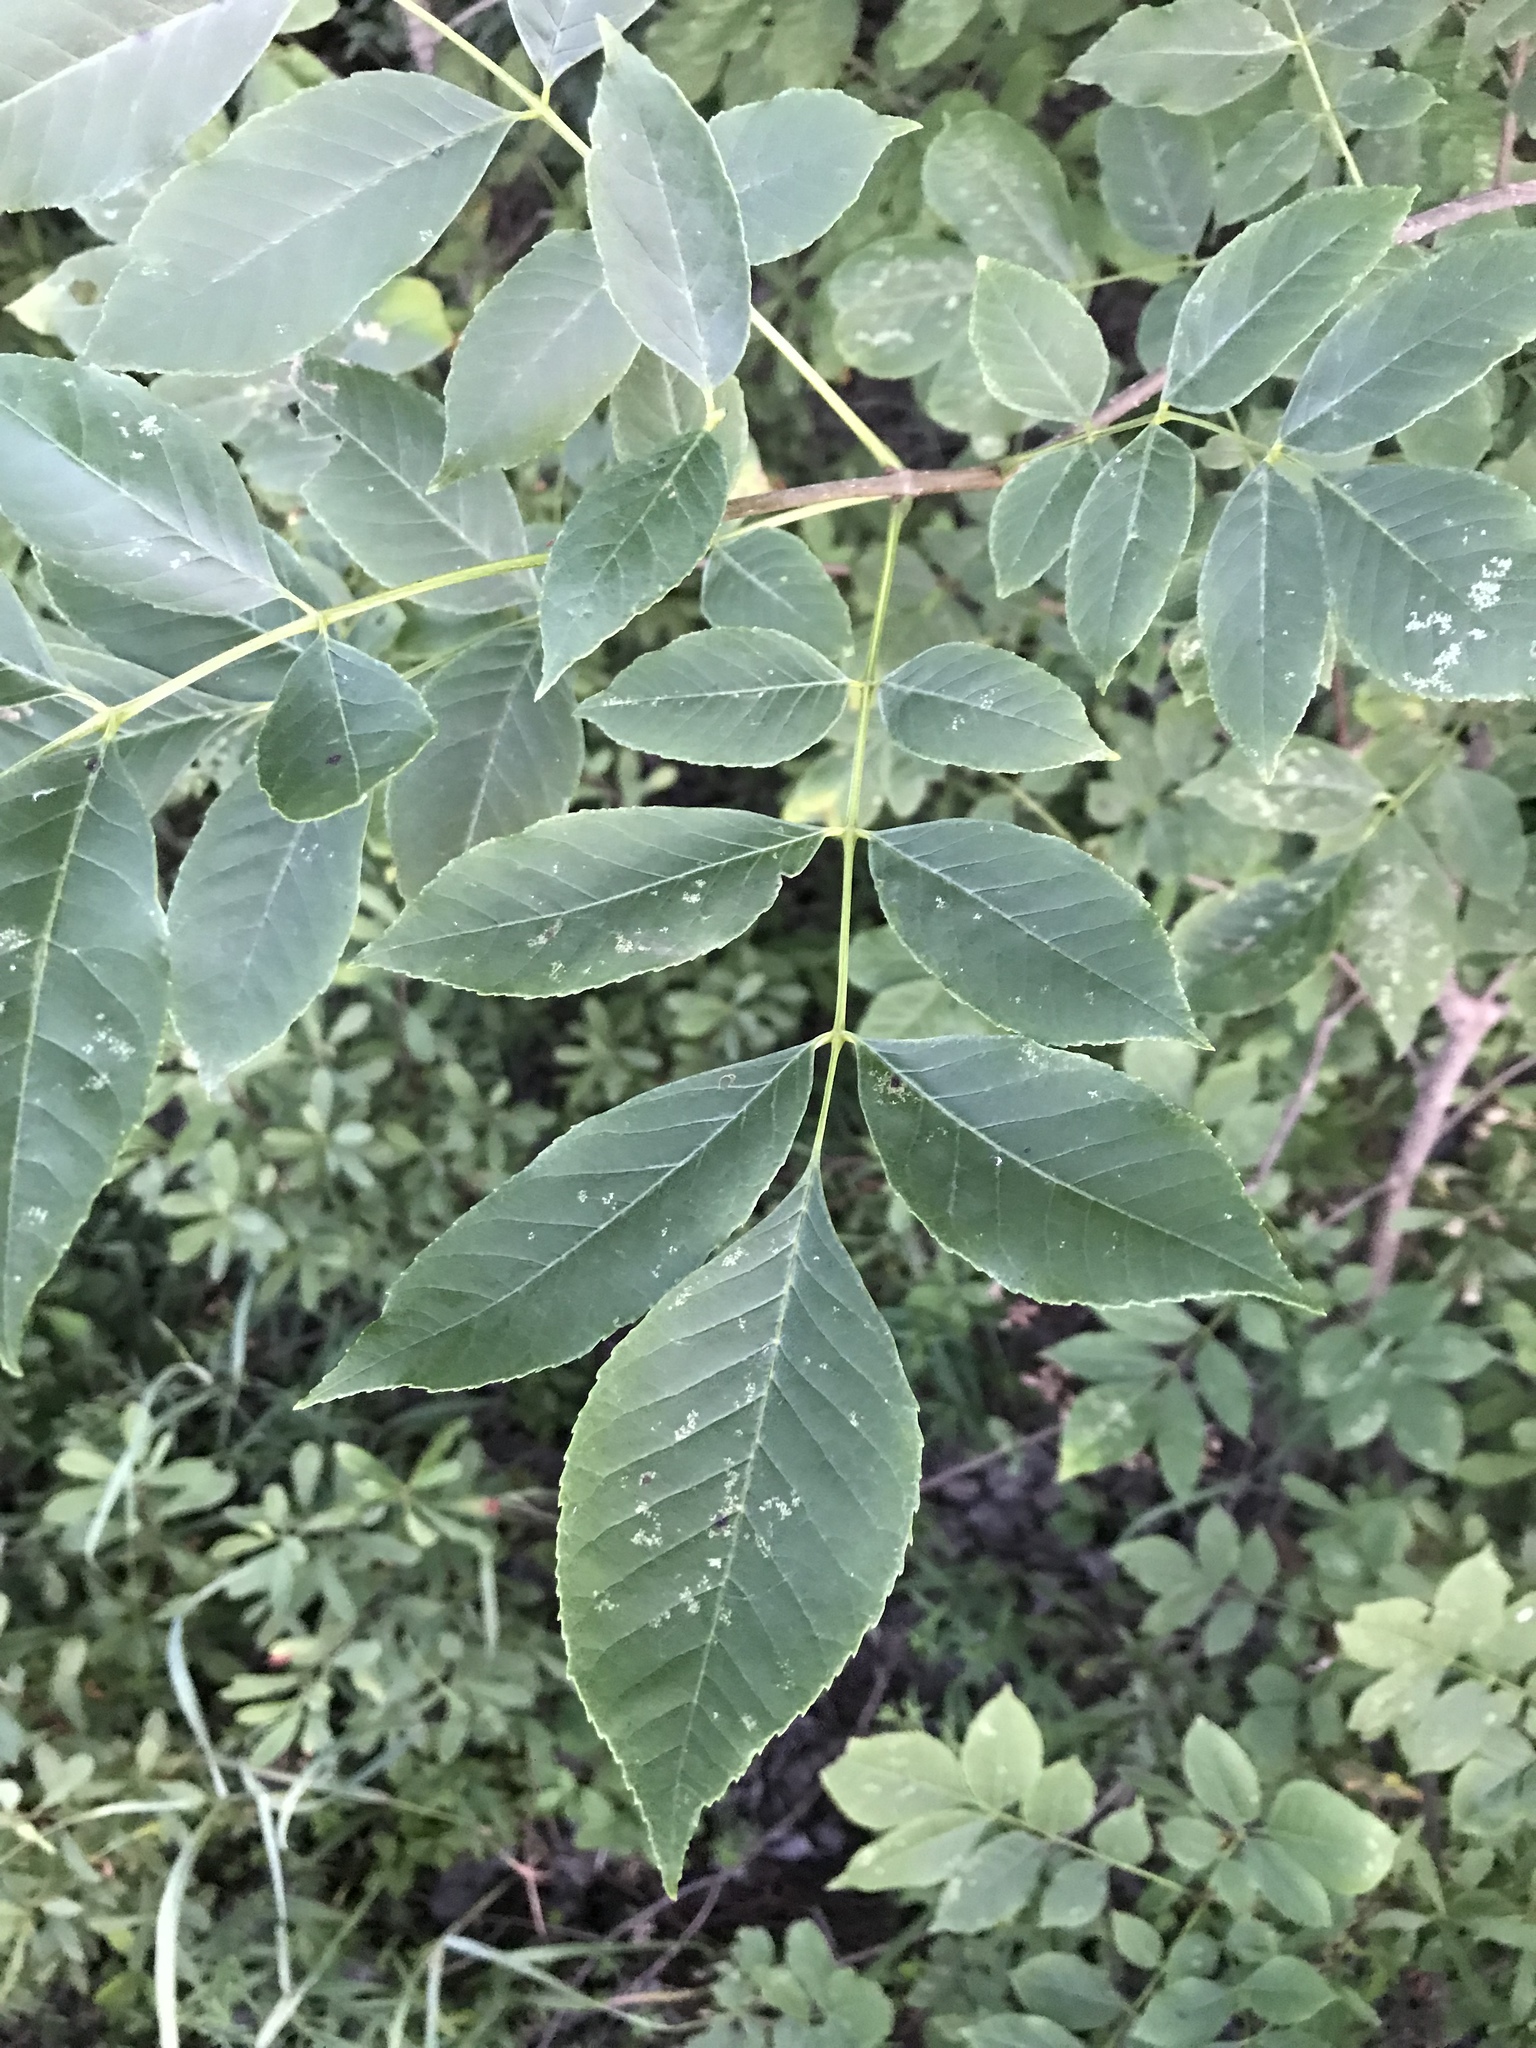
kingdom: Plantae
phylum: Tracheophyta
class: Magnoliopsida
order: Lamiales
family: Oleaceae
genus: Fraxinus
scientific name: Fraxinus pennsylvanica
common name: Green ash
